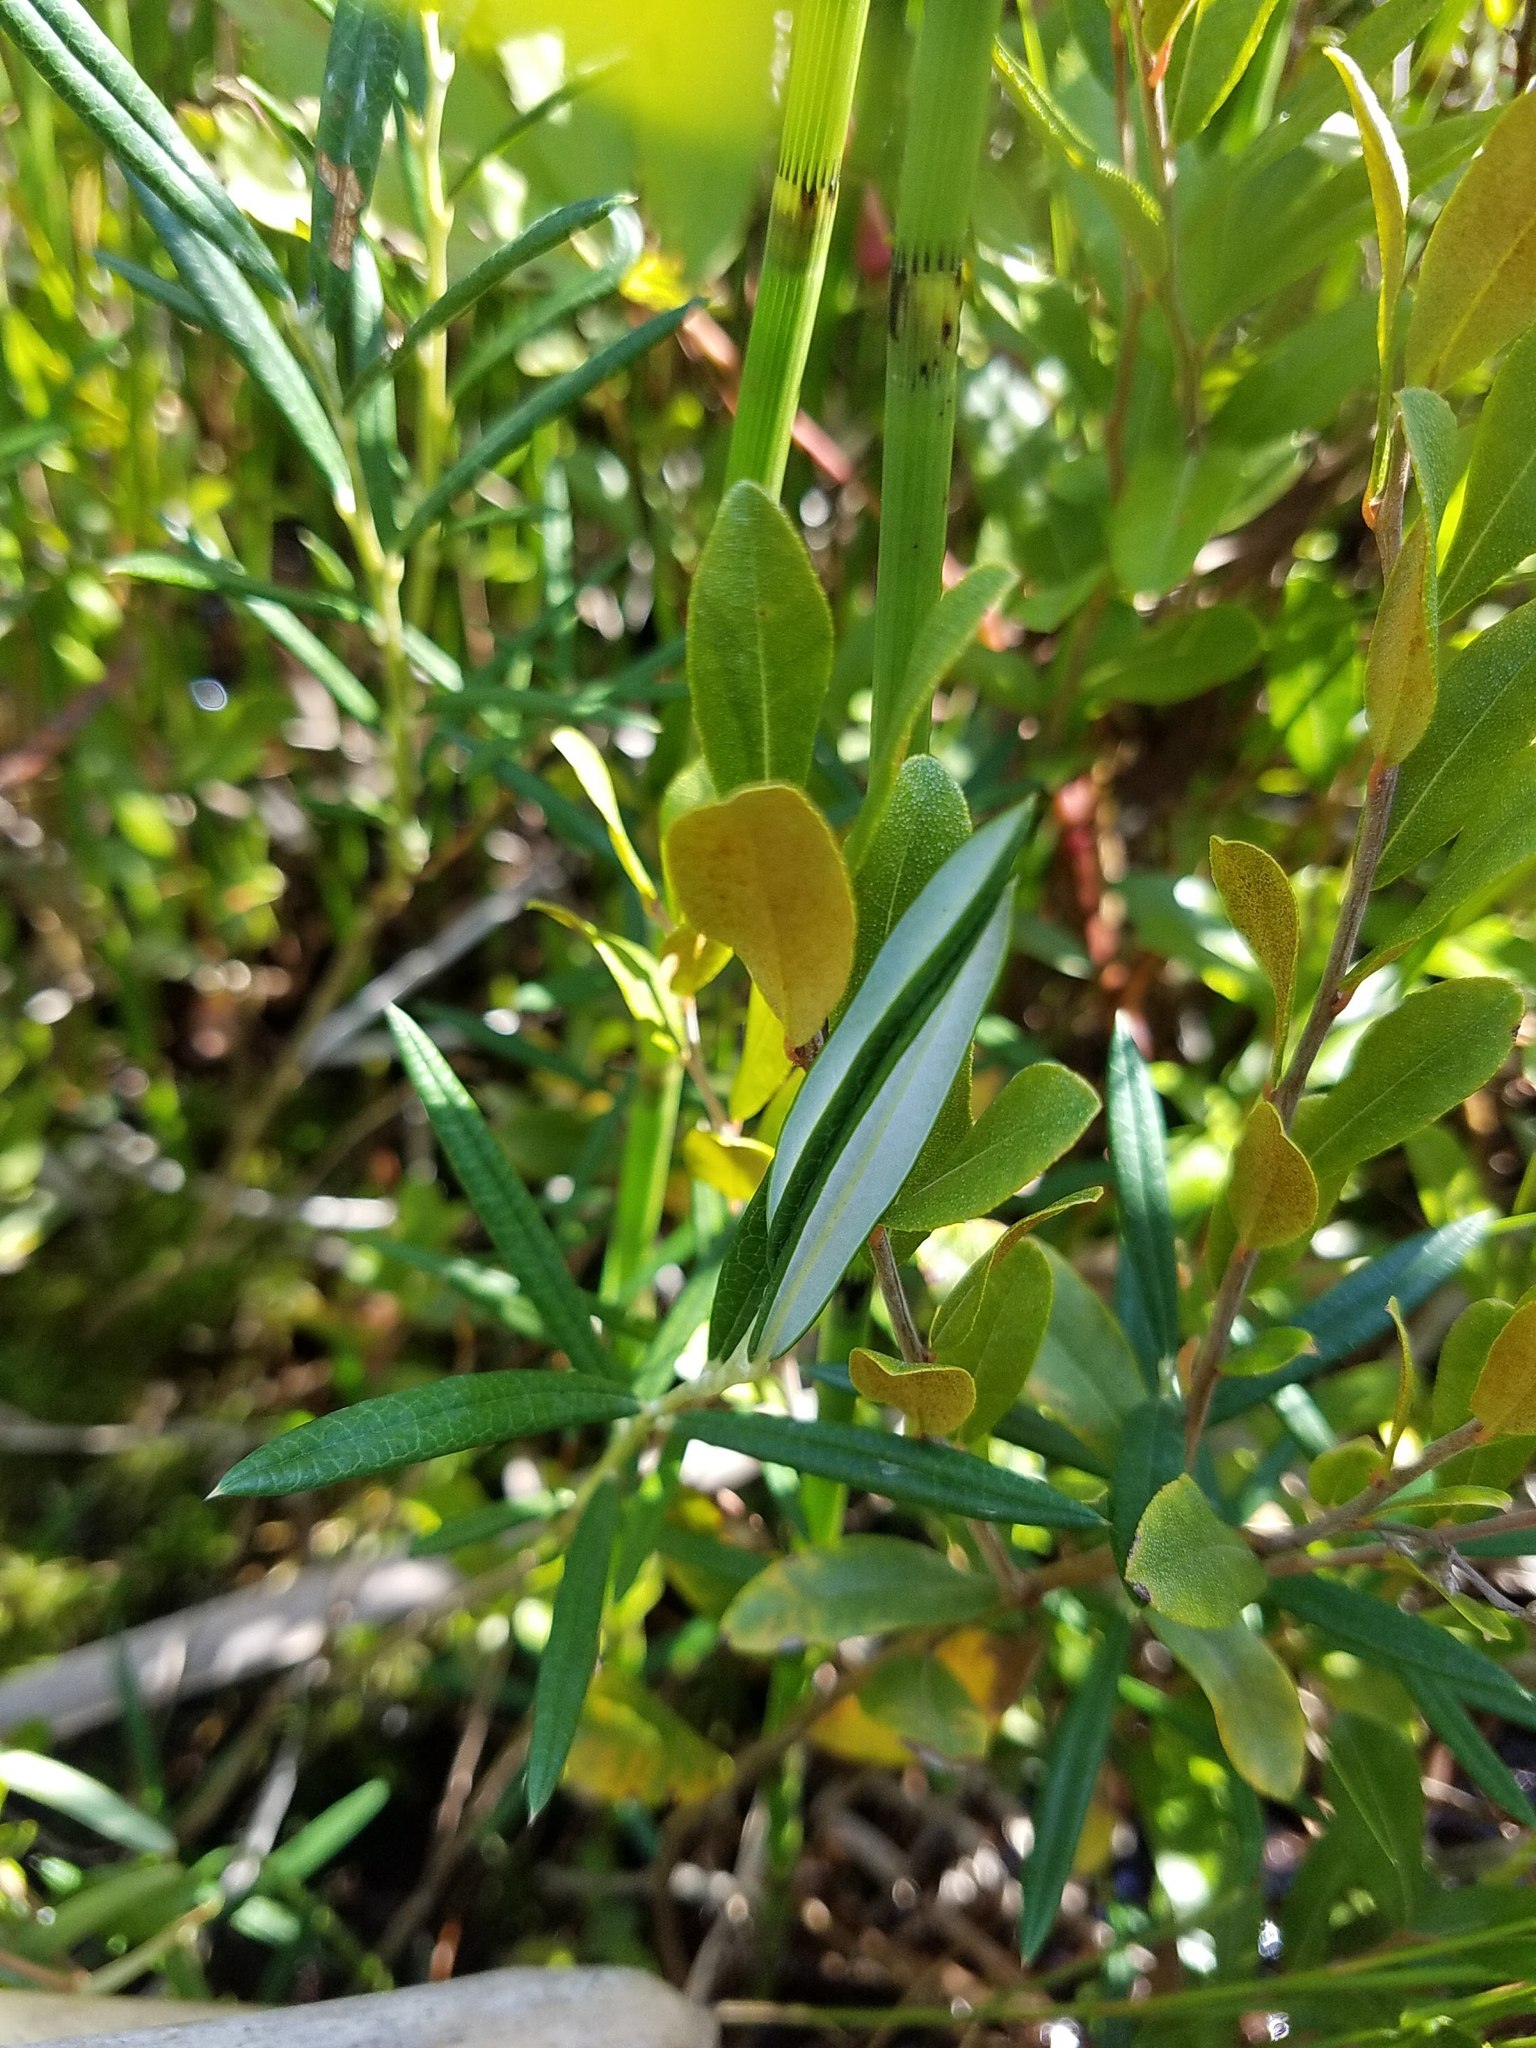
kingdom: Plantae
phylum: Tracheophyta
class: Magnoliopsida
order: Ericales
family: Ericaceae
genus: Andromeda
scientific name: Andromeda polifolia
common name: Bog-rosemary
